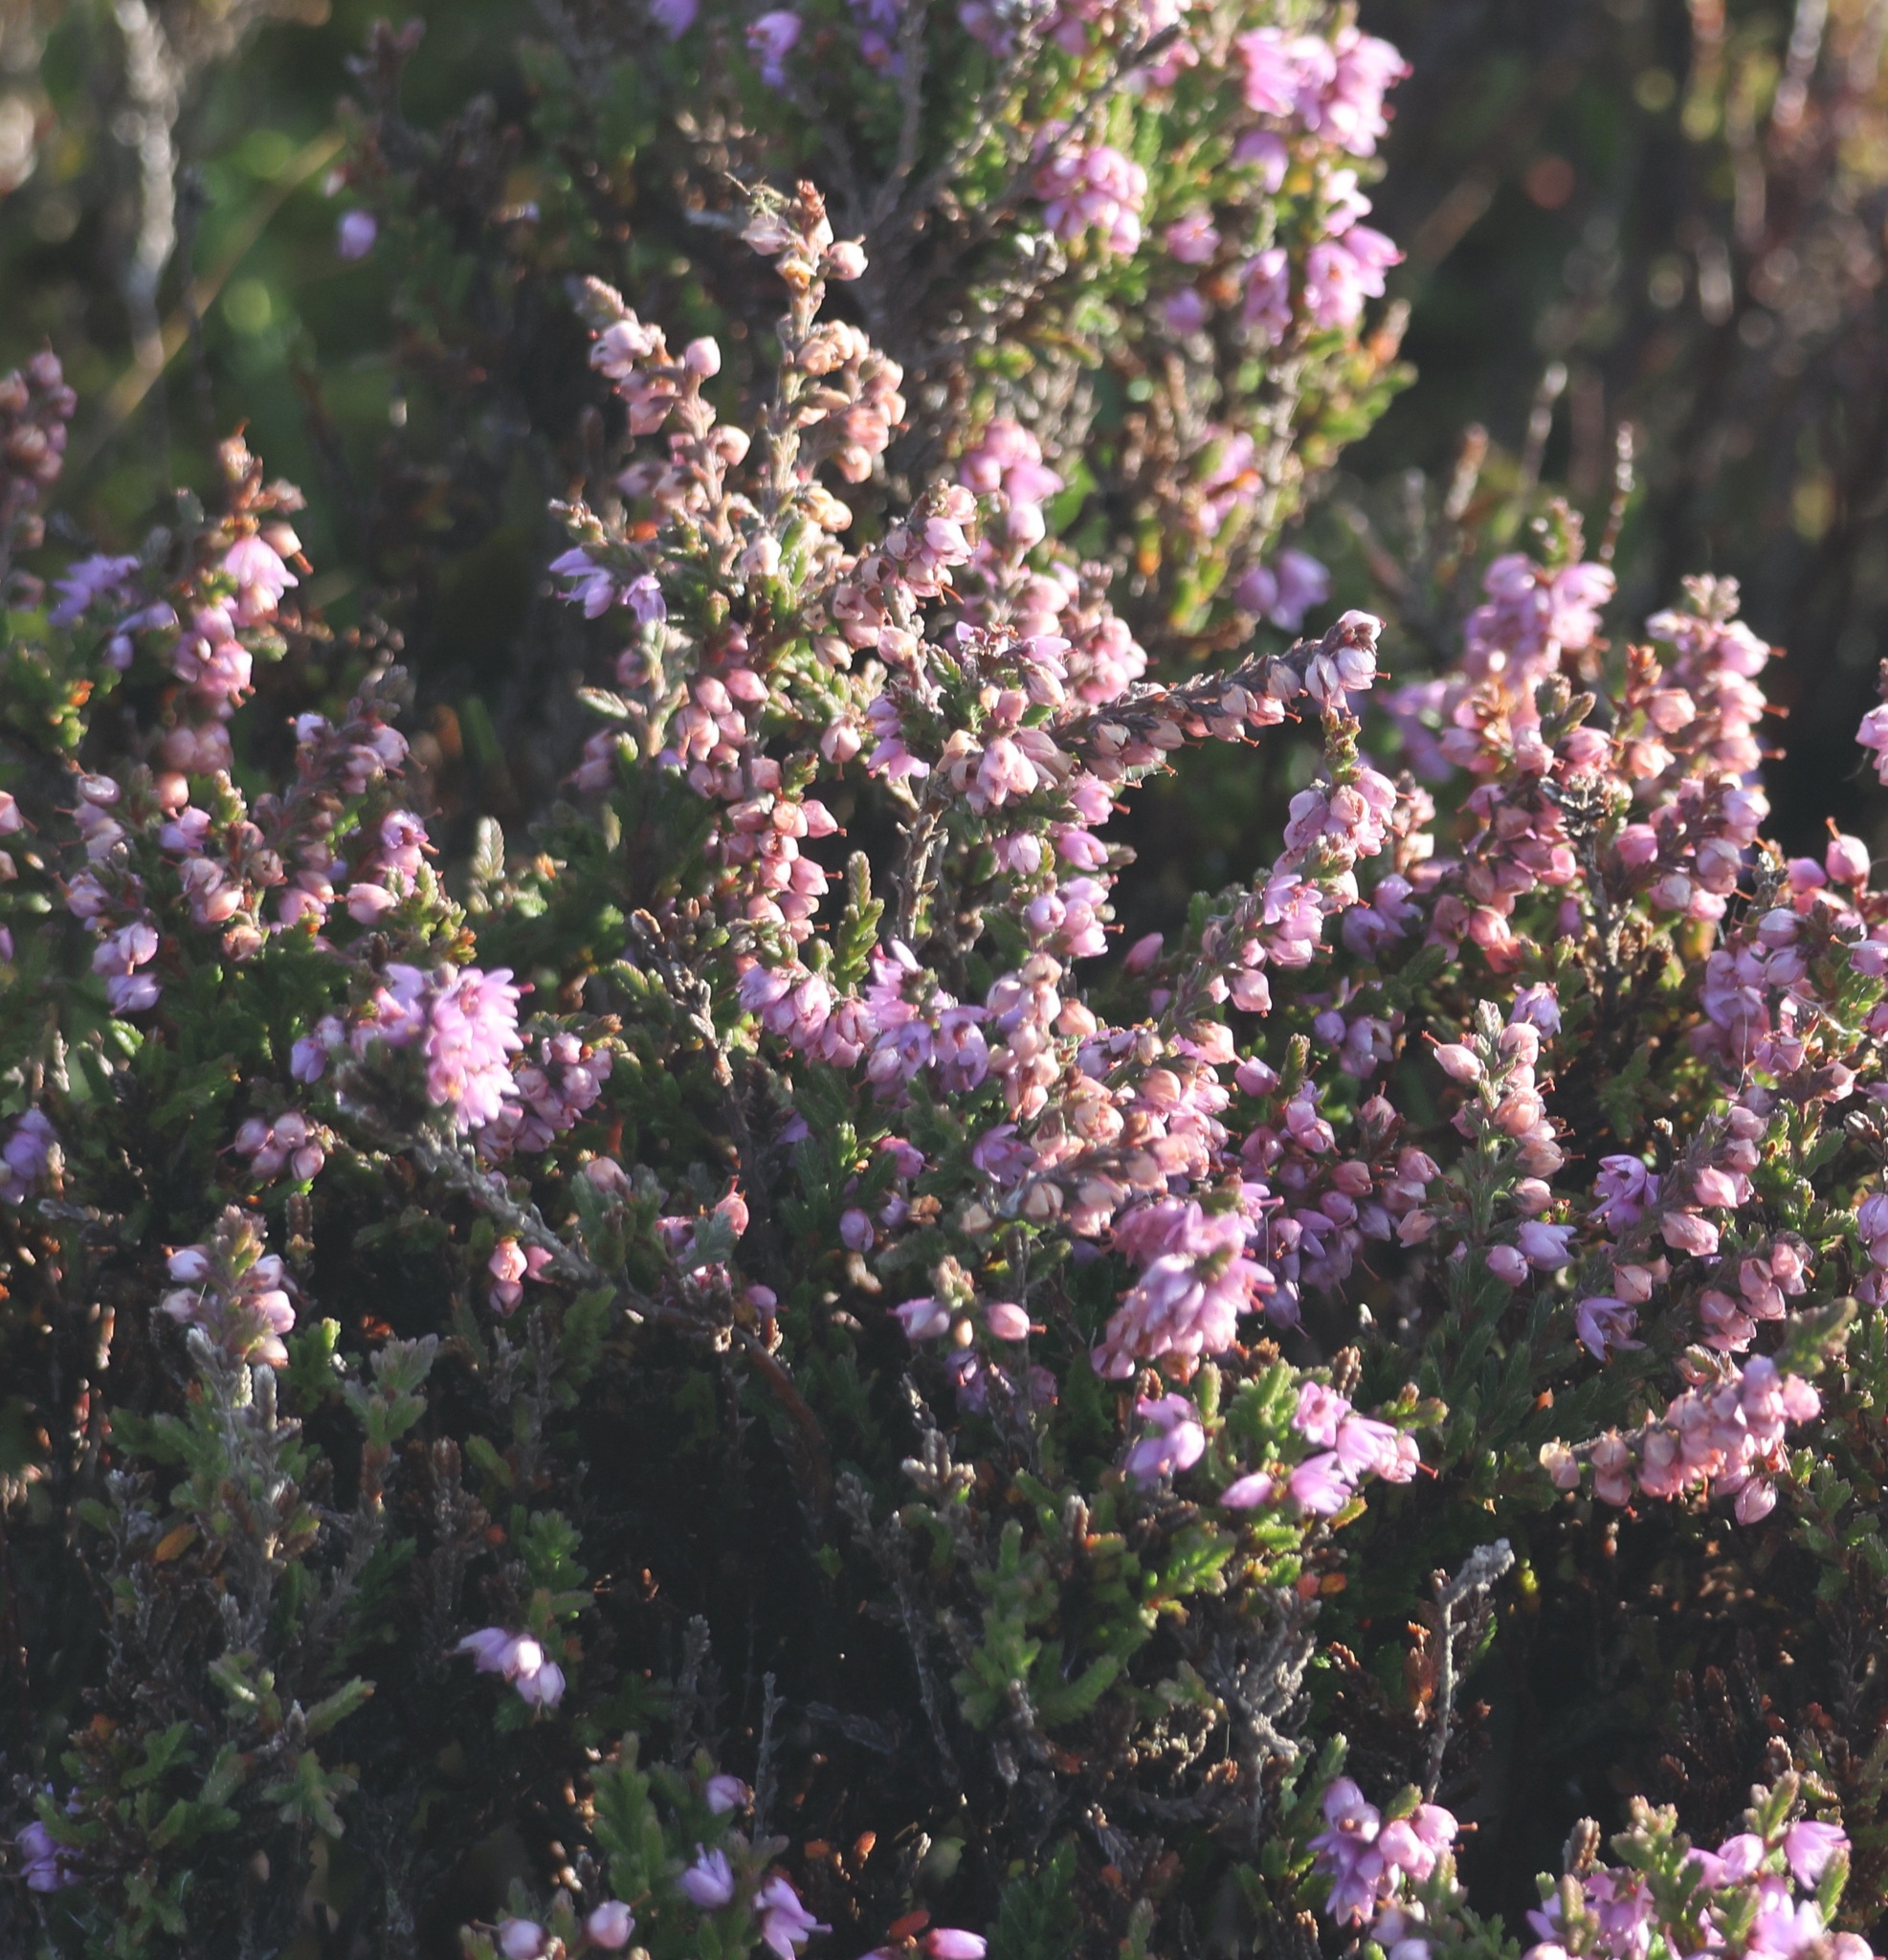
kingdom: Plantae
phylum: Tracheophyta
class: Magnoliopsida
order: Ericales
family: Ericaceae
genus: Calluna
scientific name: Calluna vulgaris
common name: Heather
